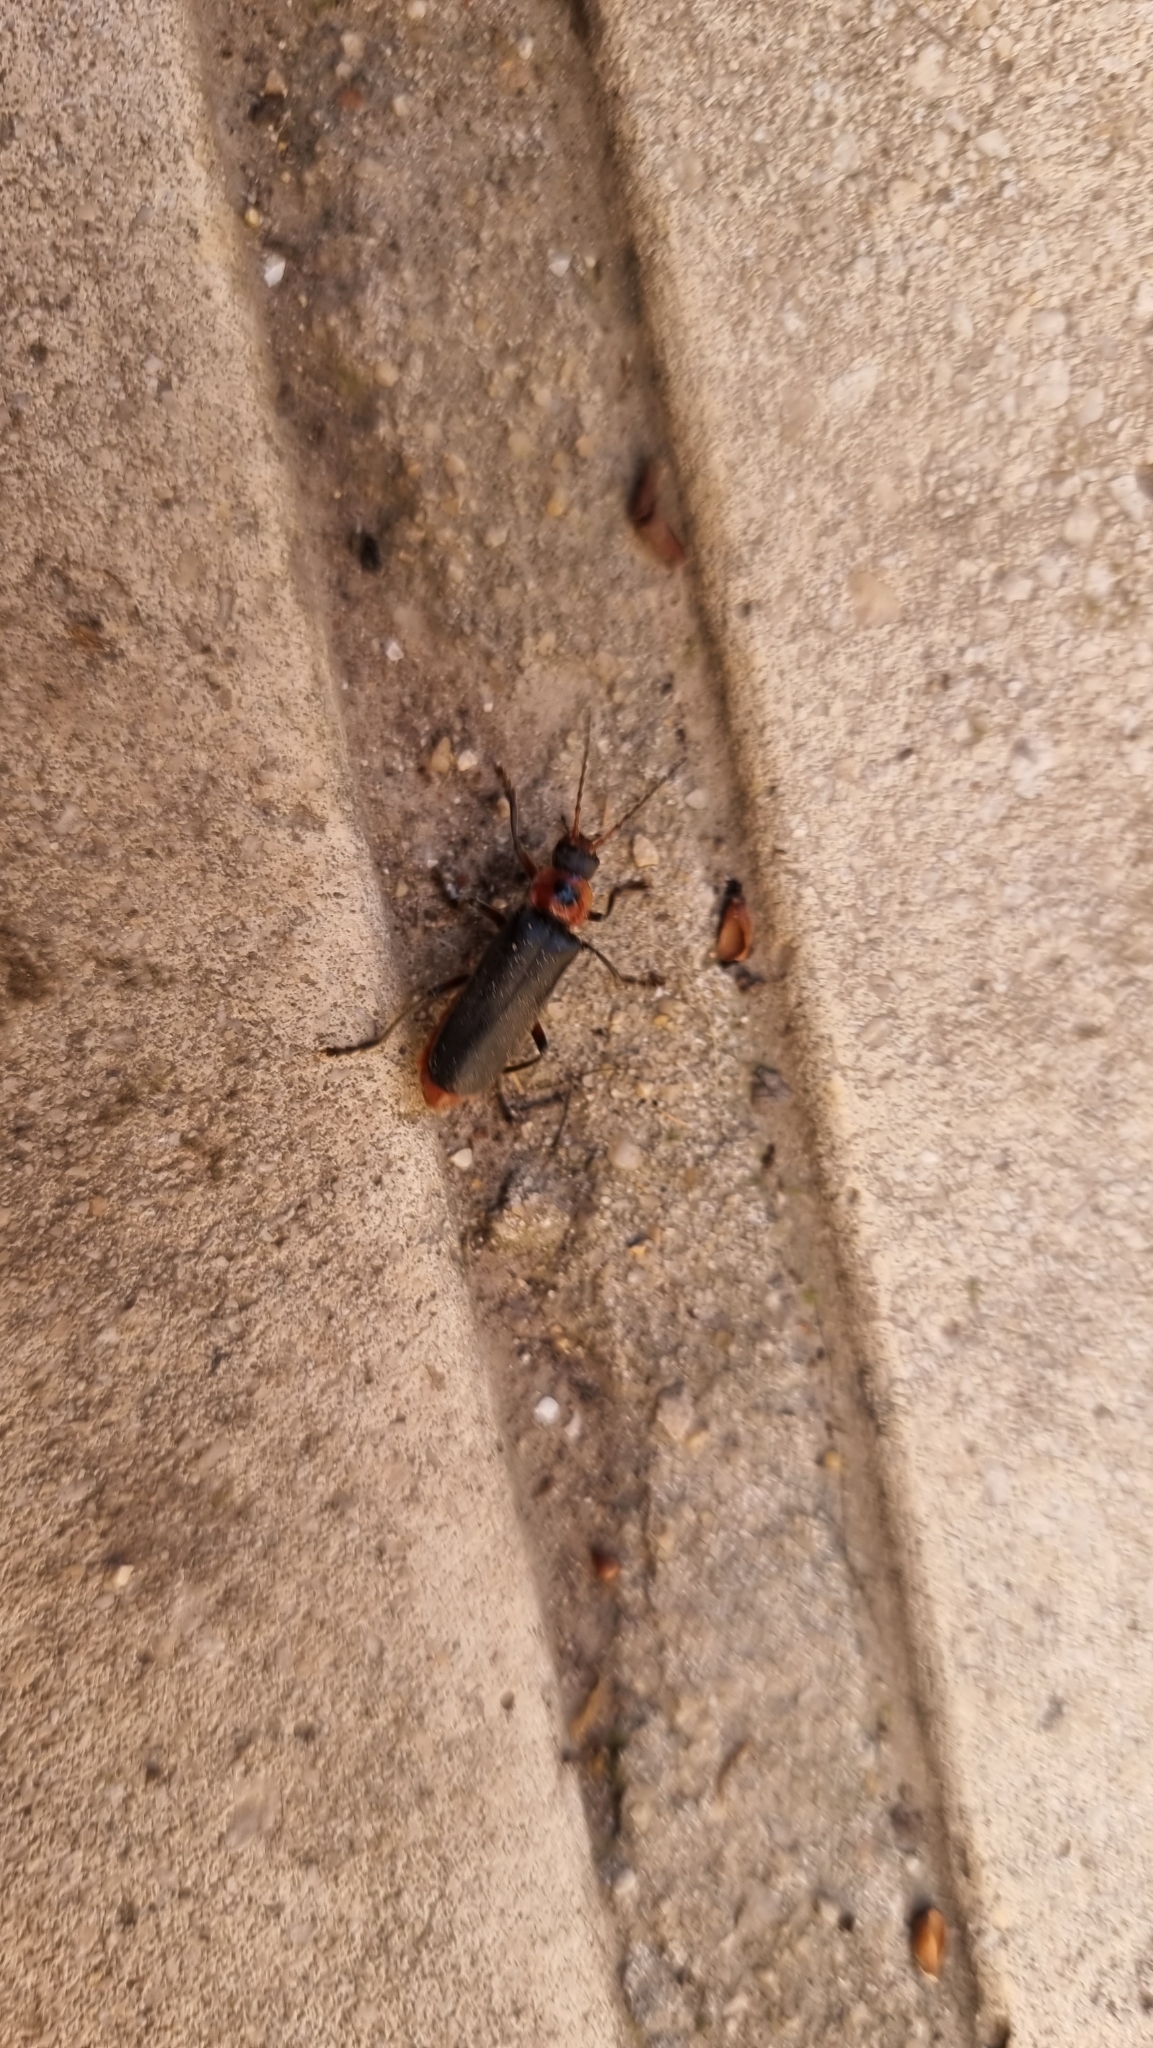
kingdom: Animalia
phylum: Arthropoda
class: Insecta
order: Coleoptera
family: Cantharidae
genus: Cantharis
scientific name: Cantharis rustica
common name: Soldier beetle
